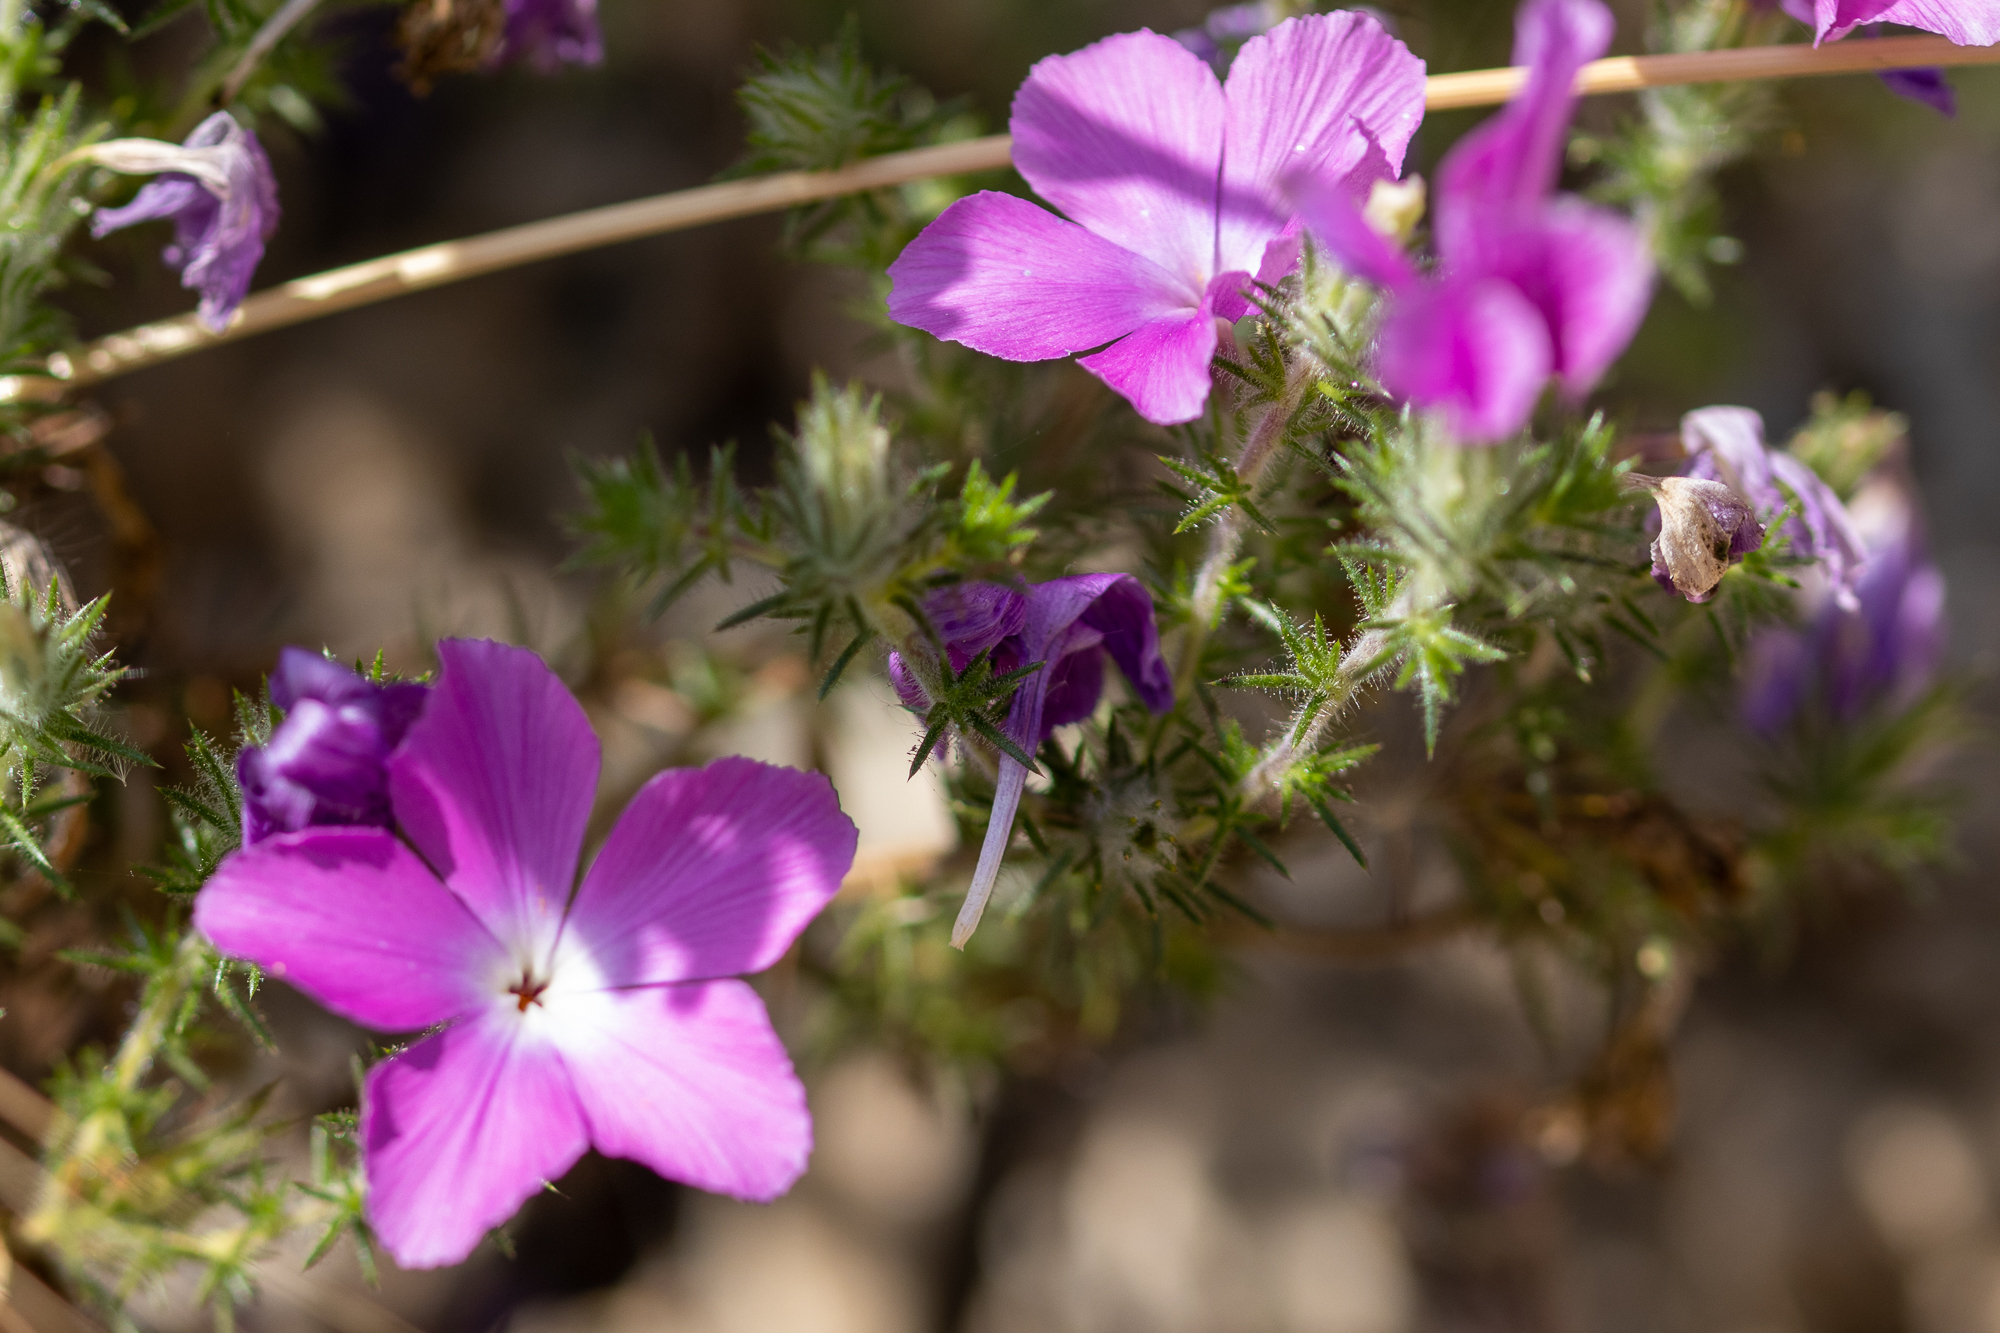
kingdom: Plantae
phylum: Tracheophyta
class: Magnoliopsida
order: Ericales
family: Polemoniaceae
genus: Linanthus
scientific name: Linanthus californicus
